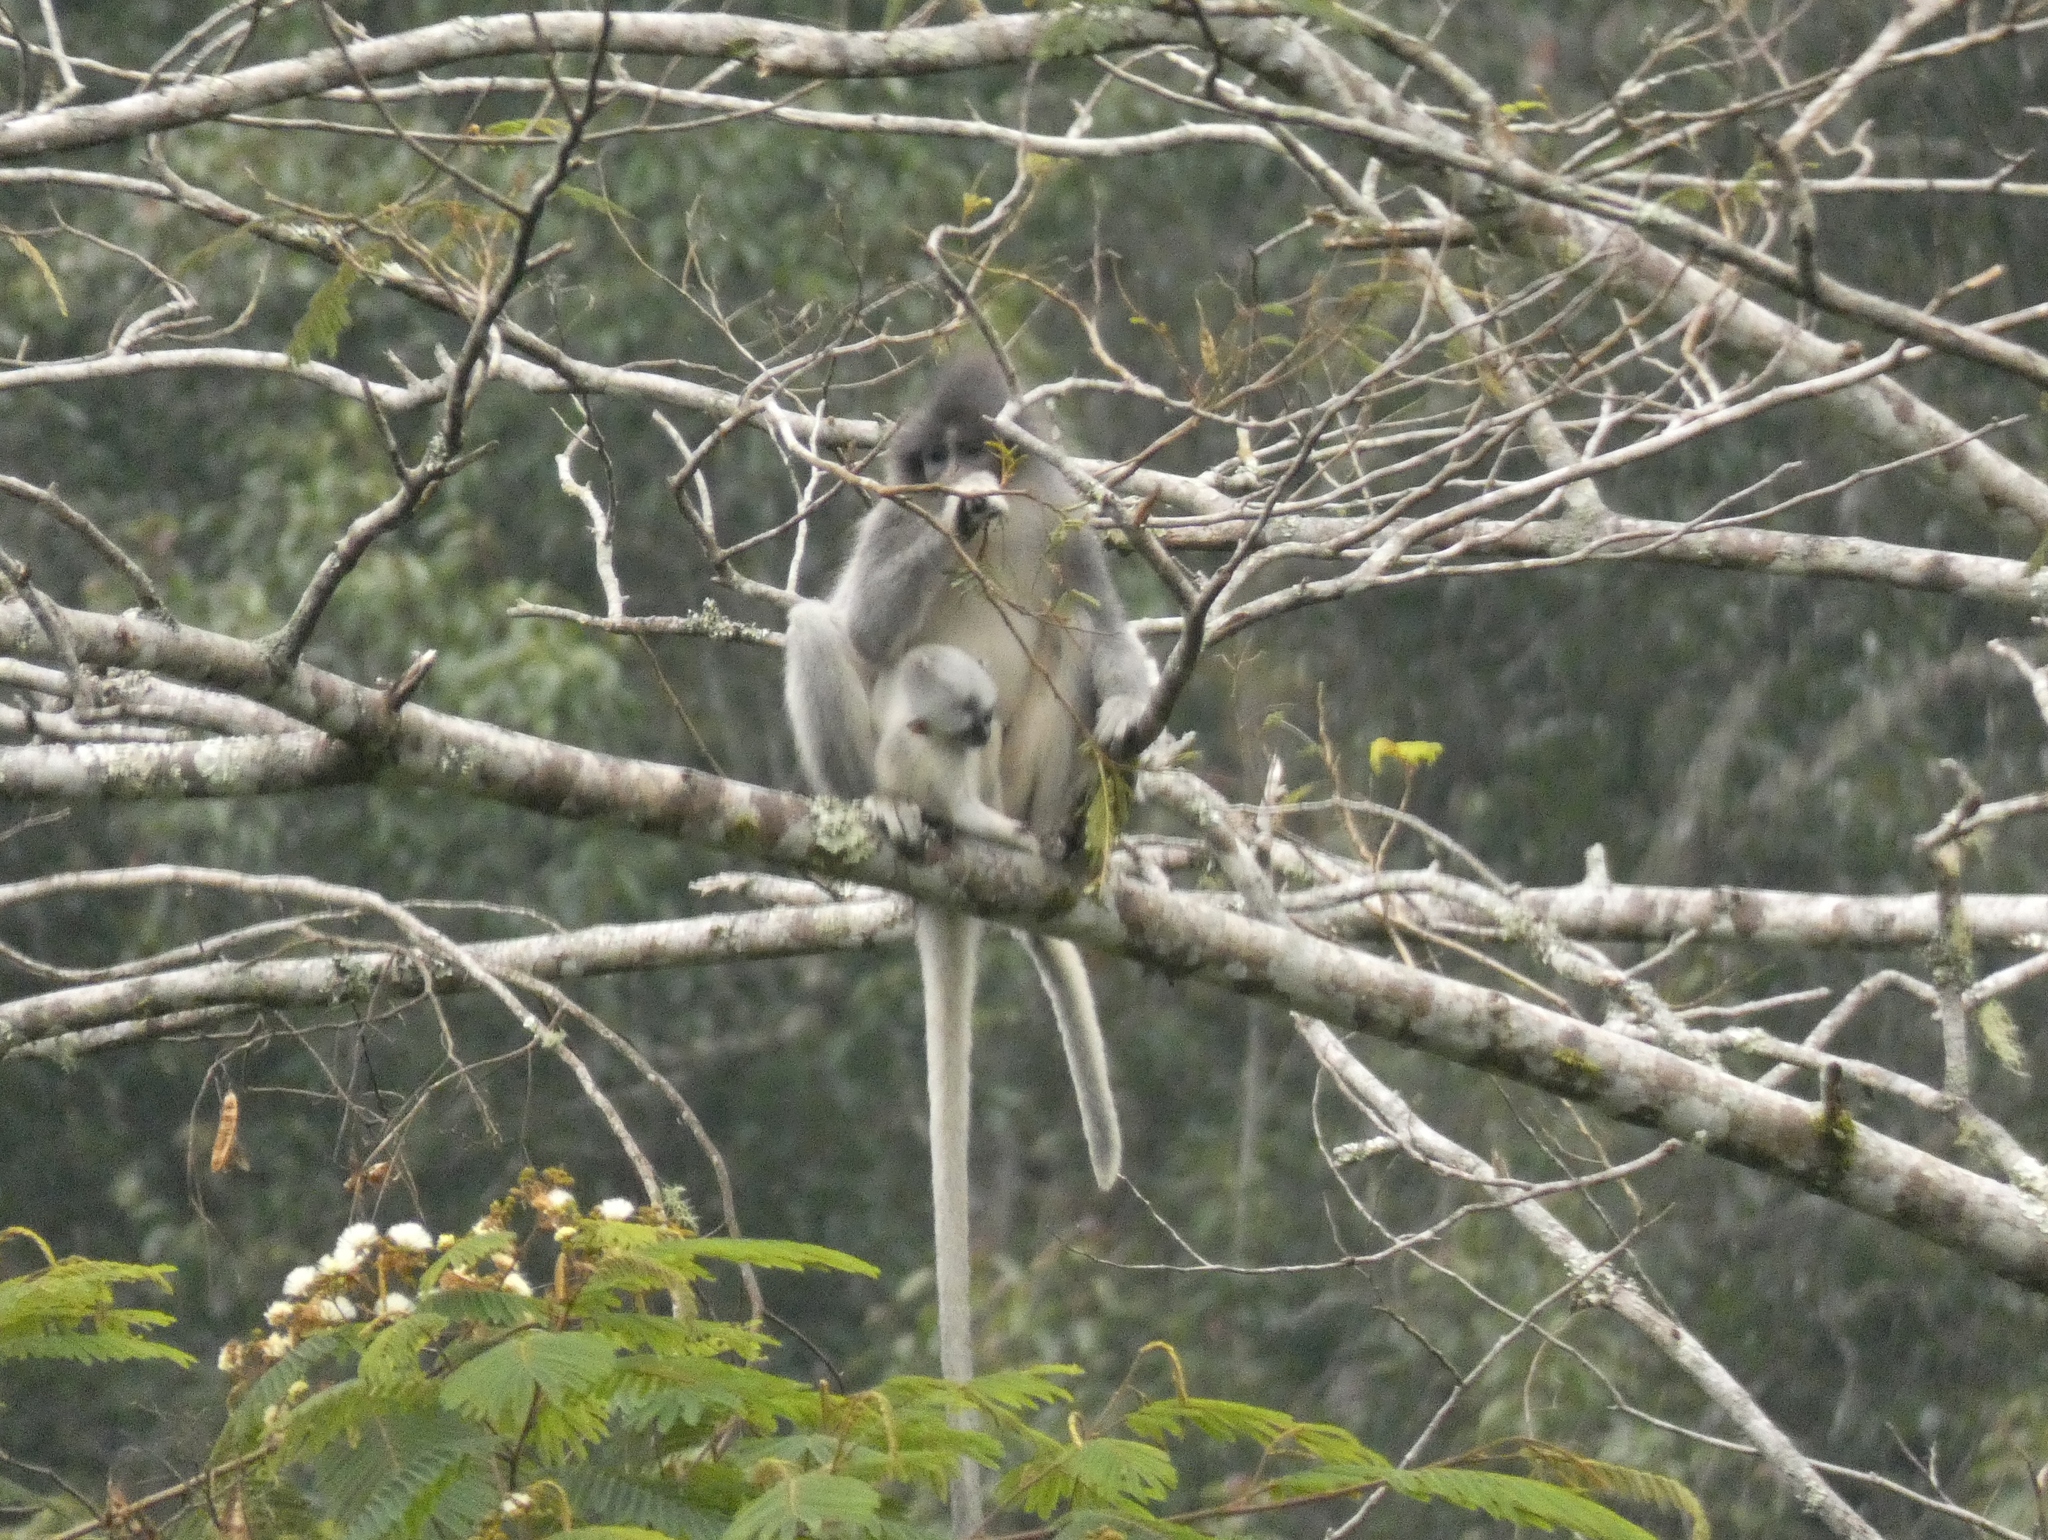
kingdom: Animalia
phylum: Chordata
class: Mammalia
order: Primates
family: Cercopithecidae
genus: Presbytis
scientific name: Presbytis comata
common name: Javan surili
